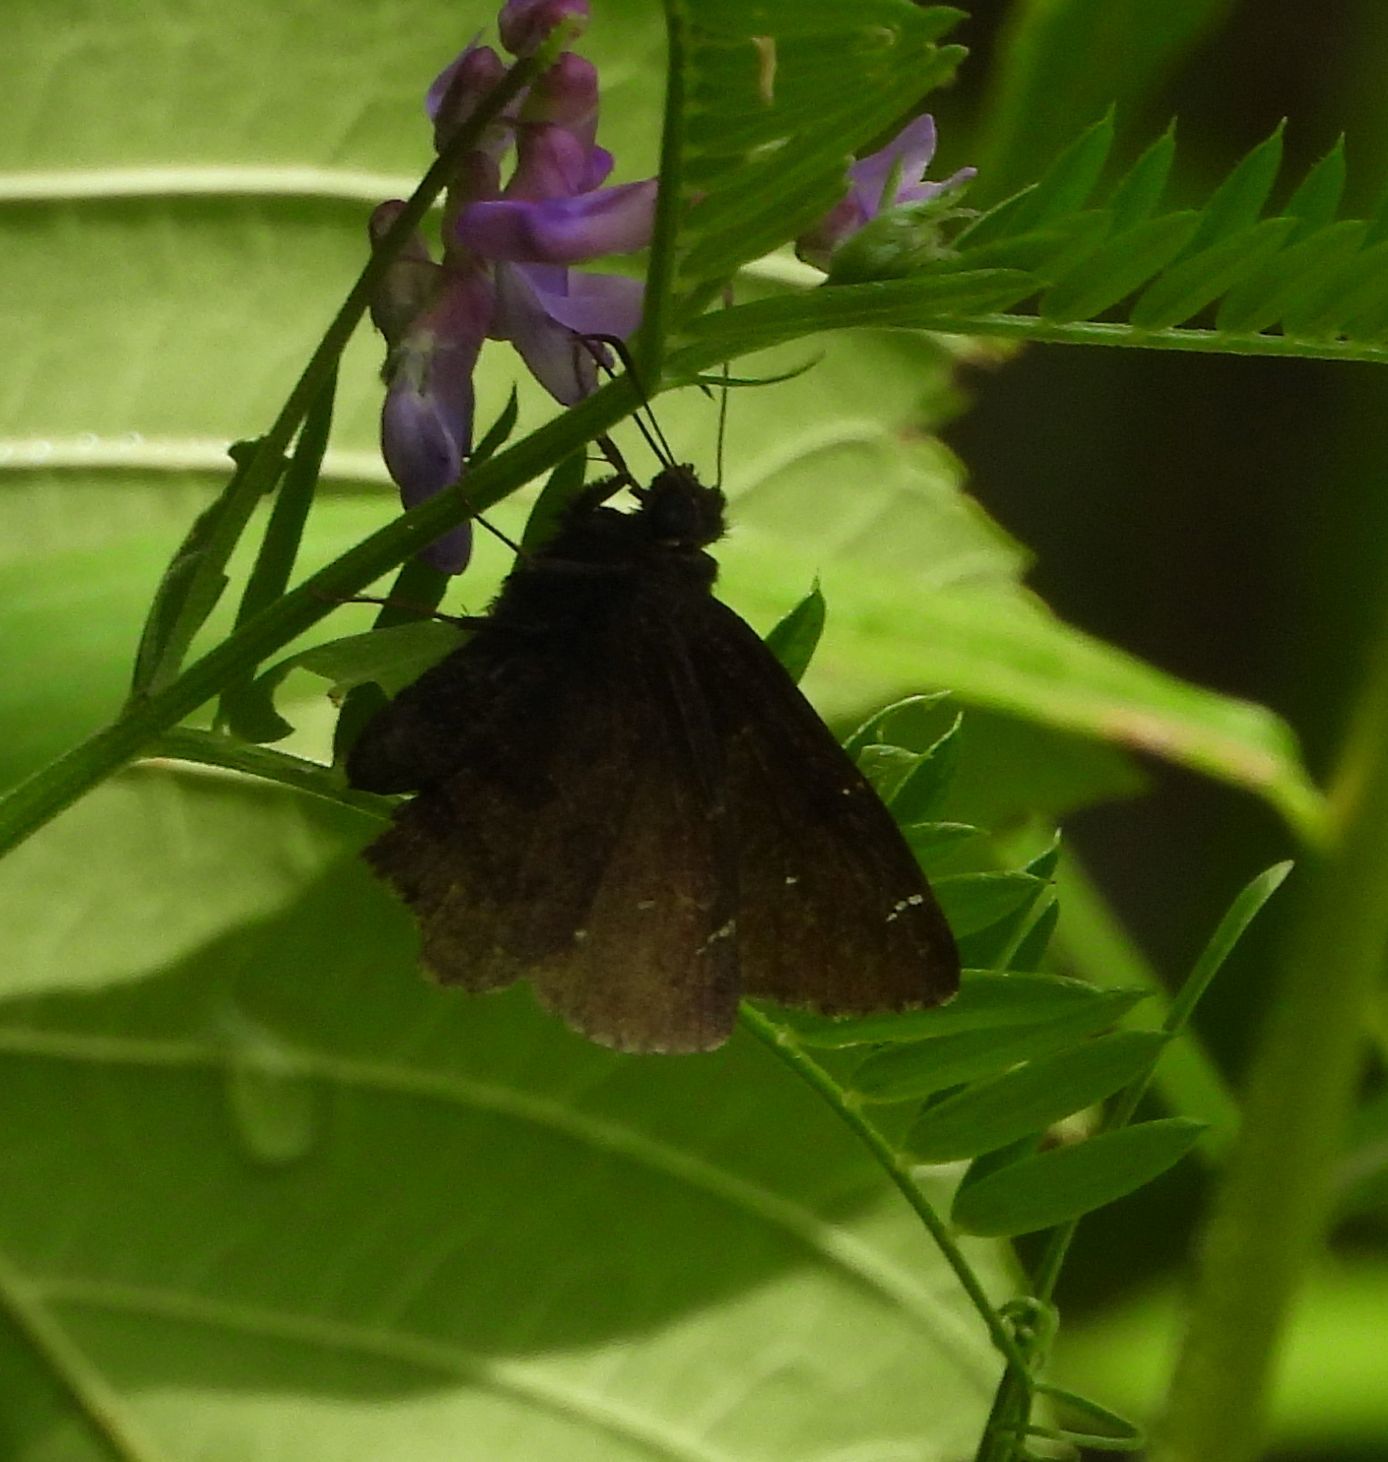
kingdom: Animalia
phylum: Arthropoda
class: Insecta
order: Lepidoptera
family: Hesperiidae
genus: Thorybes
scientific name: Thorybes pylades
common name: Northern cloudywing
